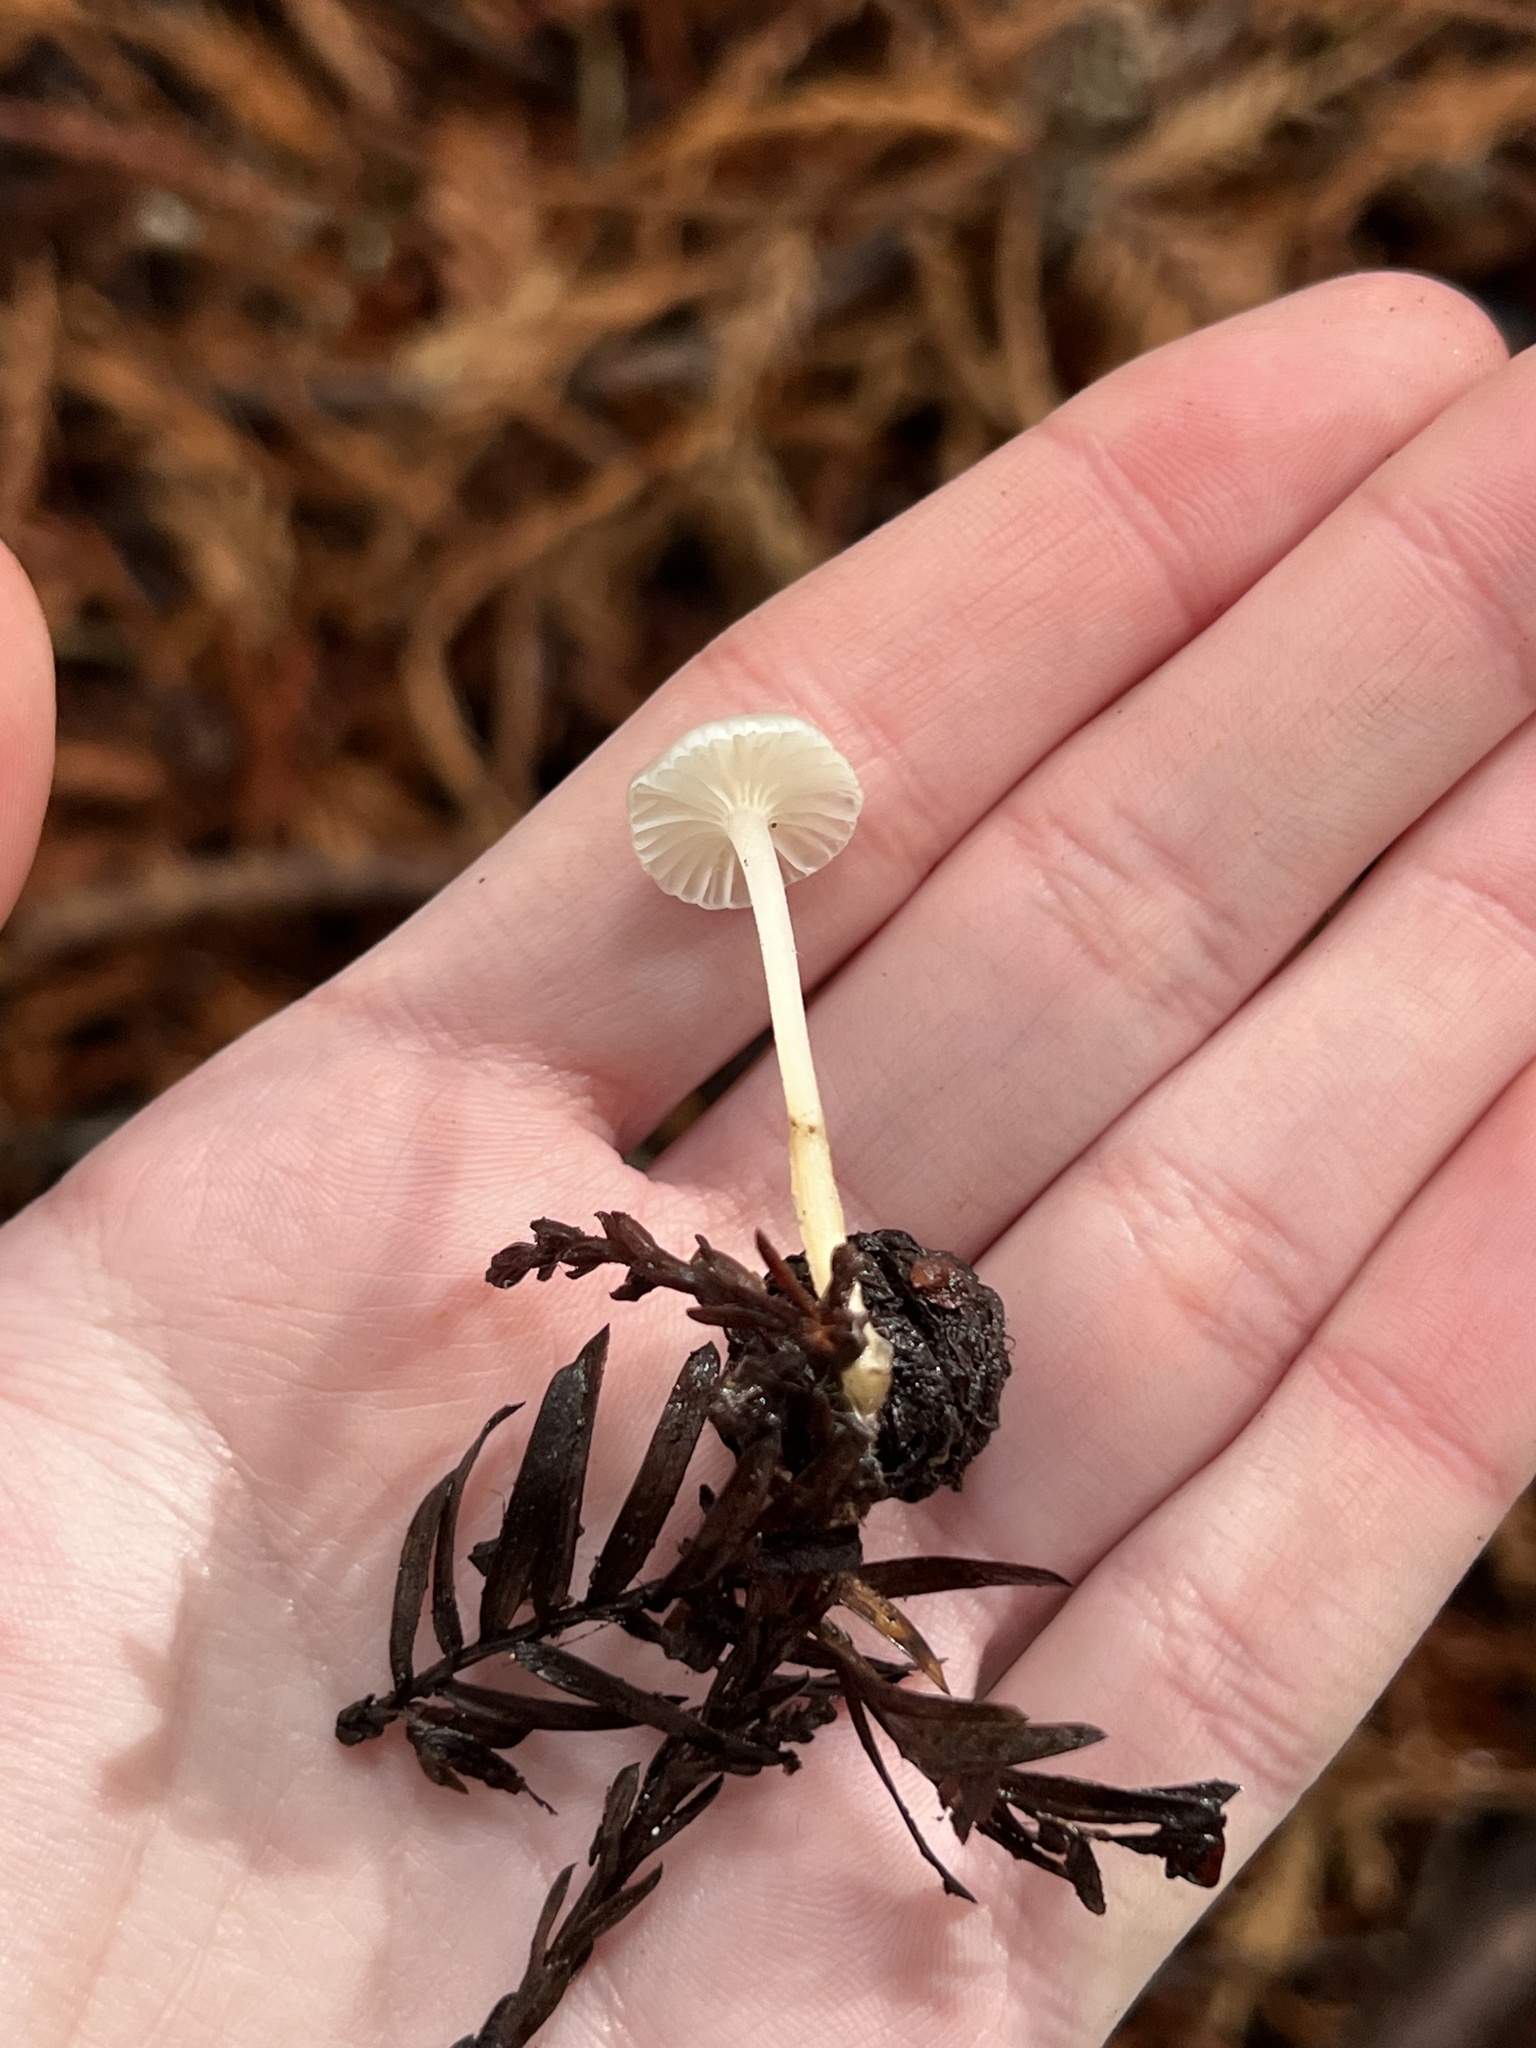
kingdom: Fungi
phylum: Basidiomycota
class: Agaricomycetes
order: Agaricales
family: Marasmiaceae
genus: Marasmius
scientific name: Marasmius calhouniae
